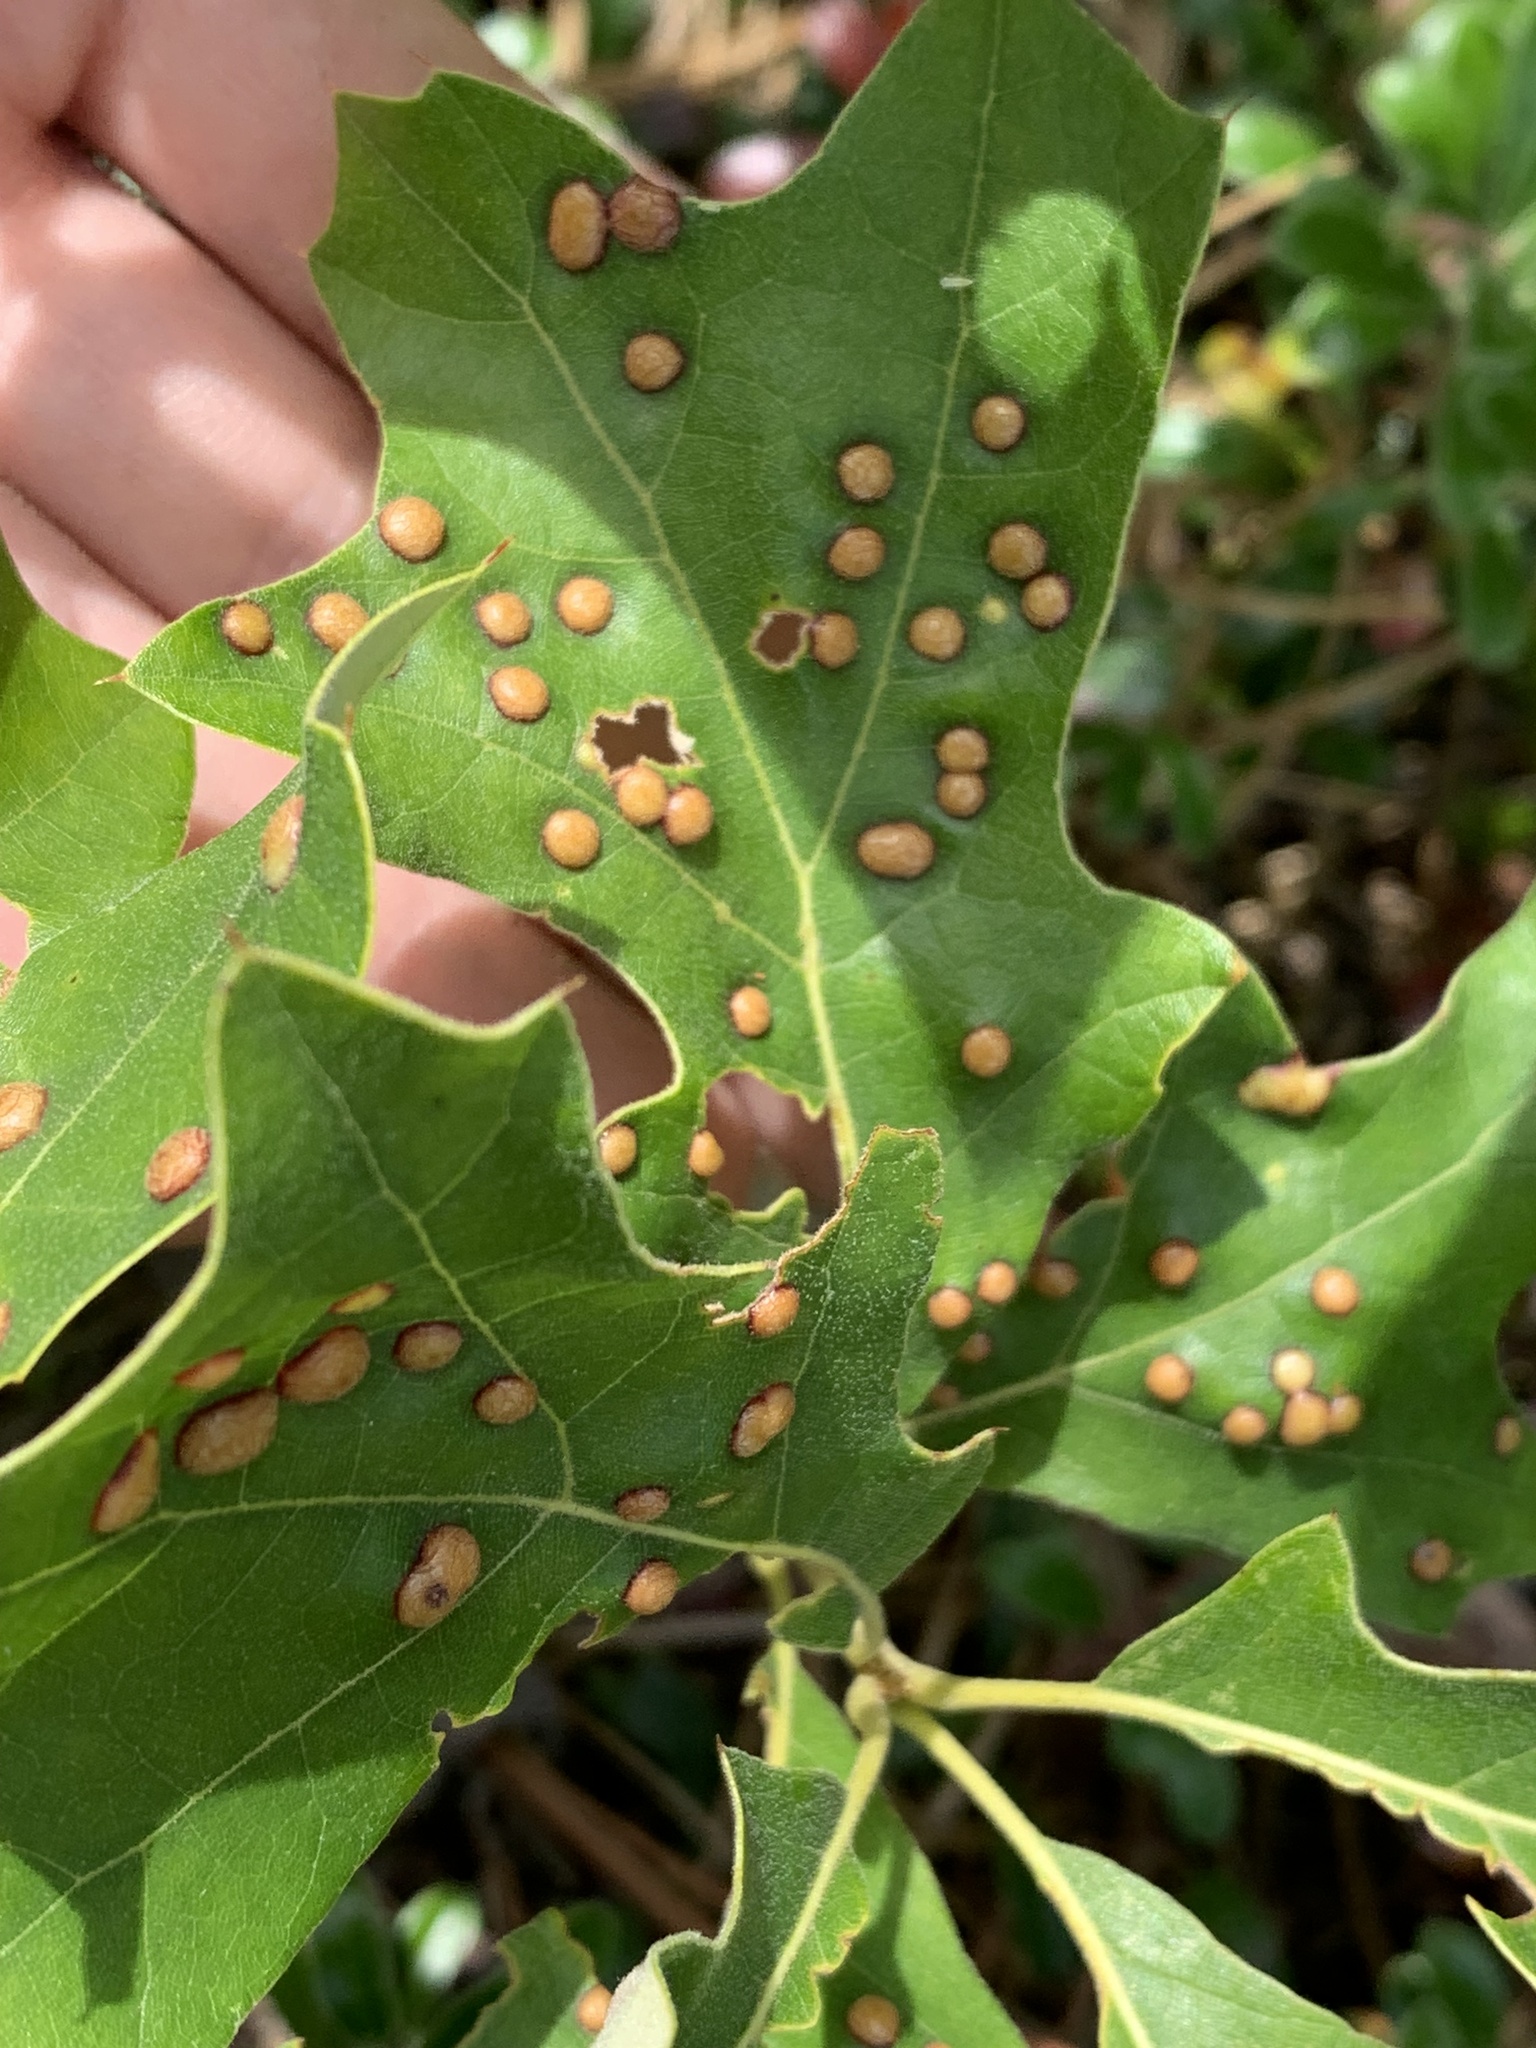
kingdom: Animalia
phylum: Arthropoda
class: Insecta
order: Diptera
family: Cecidomyiidae
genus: Polystepha
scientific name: Polystepha pilulae
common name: Oak leaf gall midge
